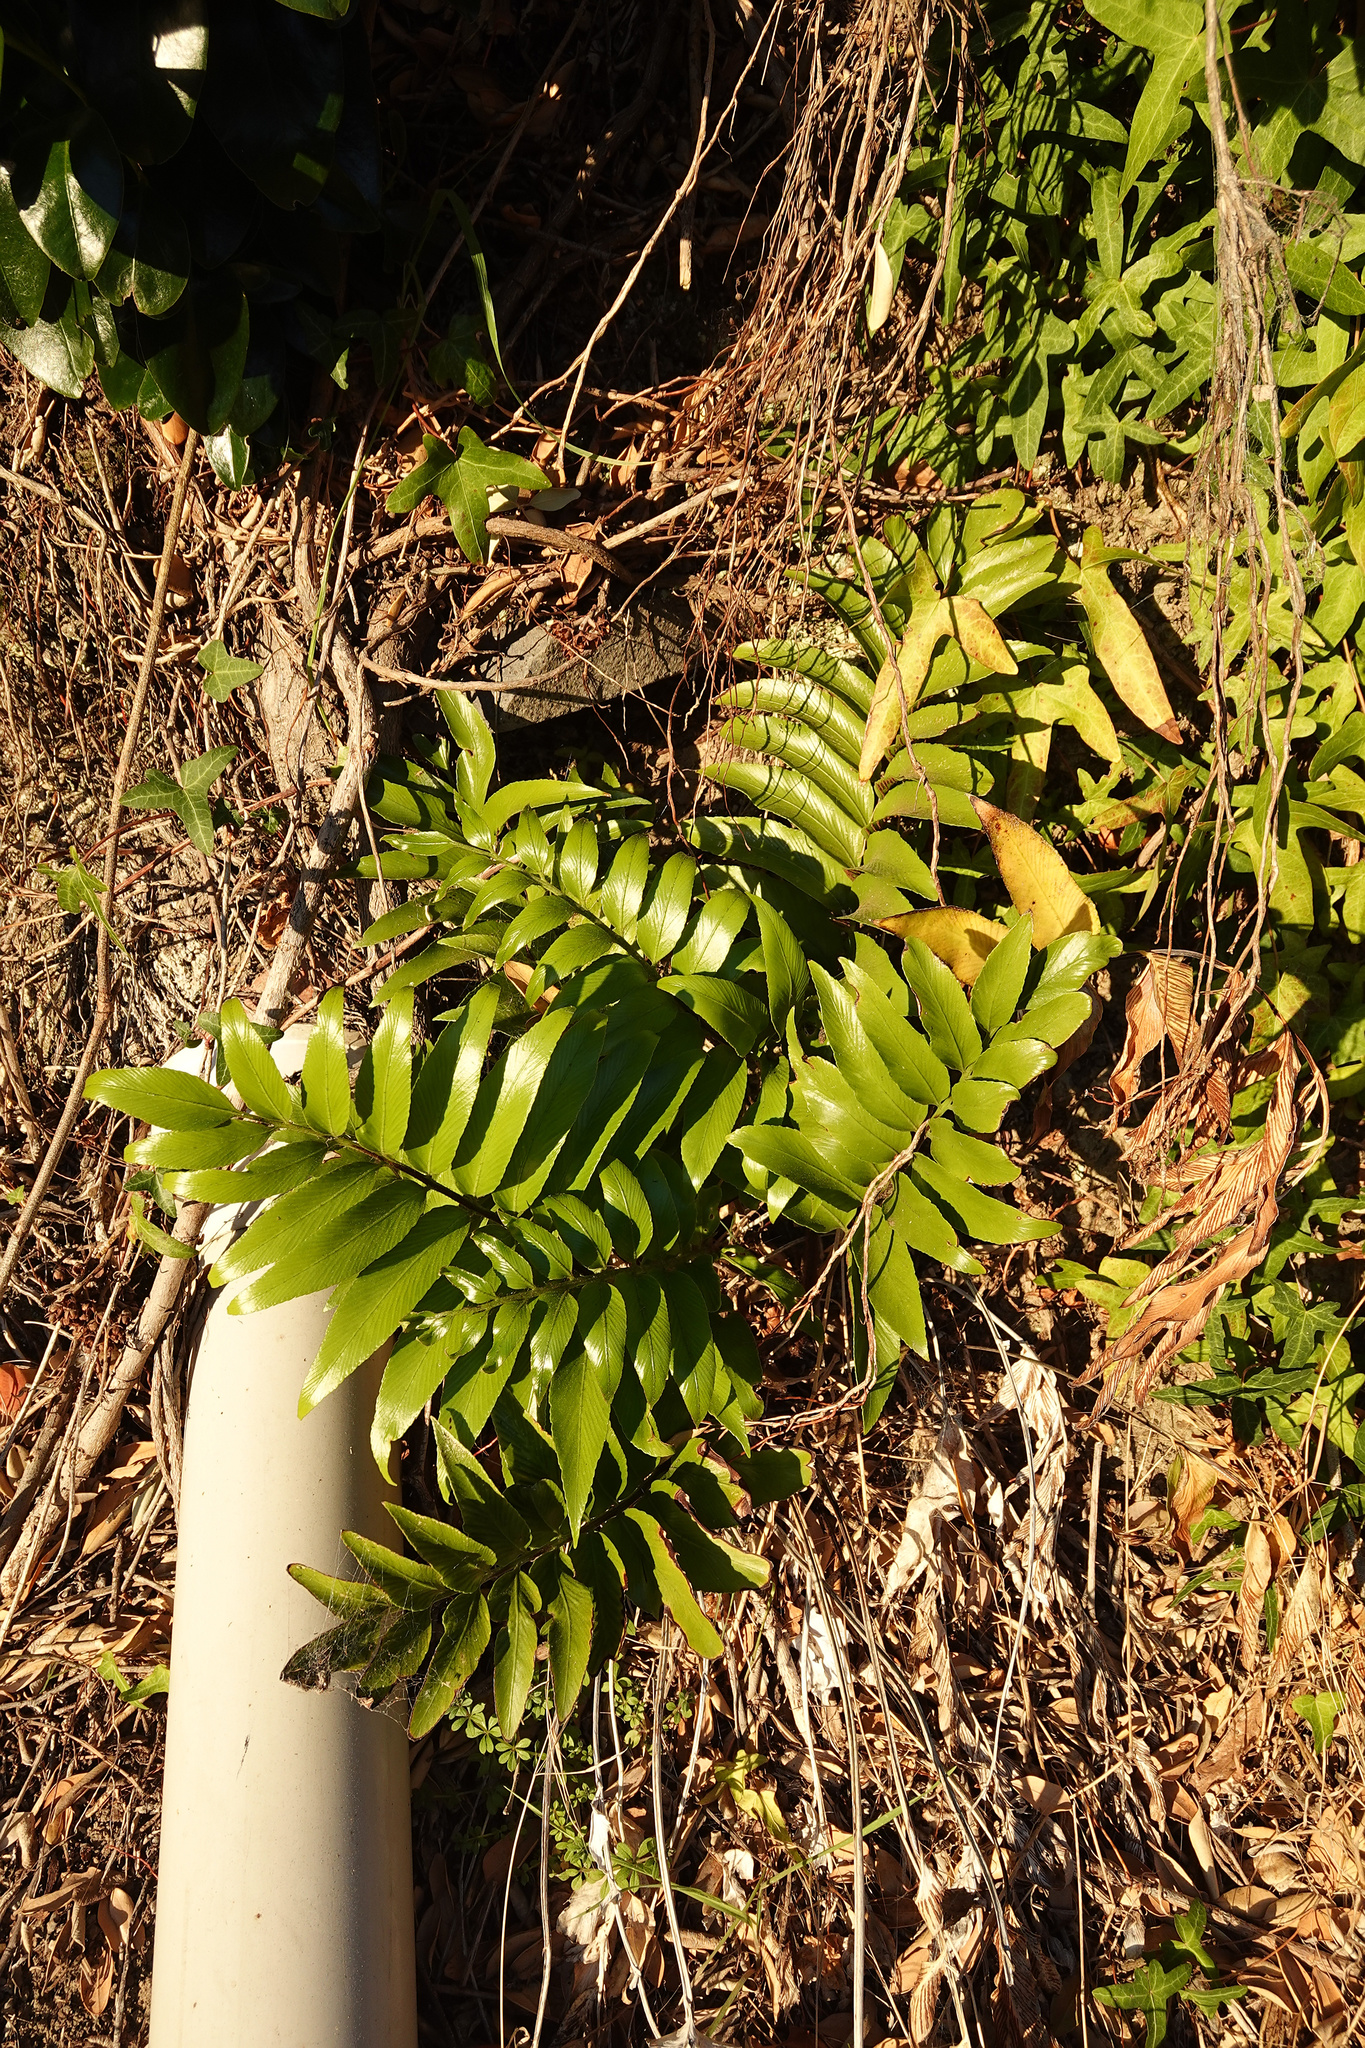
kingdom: Plantae
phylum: Tracheophyta
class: Polypodiopsida
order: Polypodiales
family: Aspleniaceae
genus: Asplenium
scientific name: Asplenium oblongifolium
